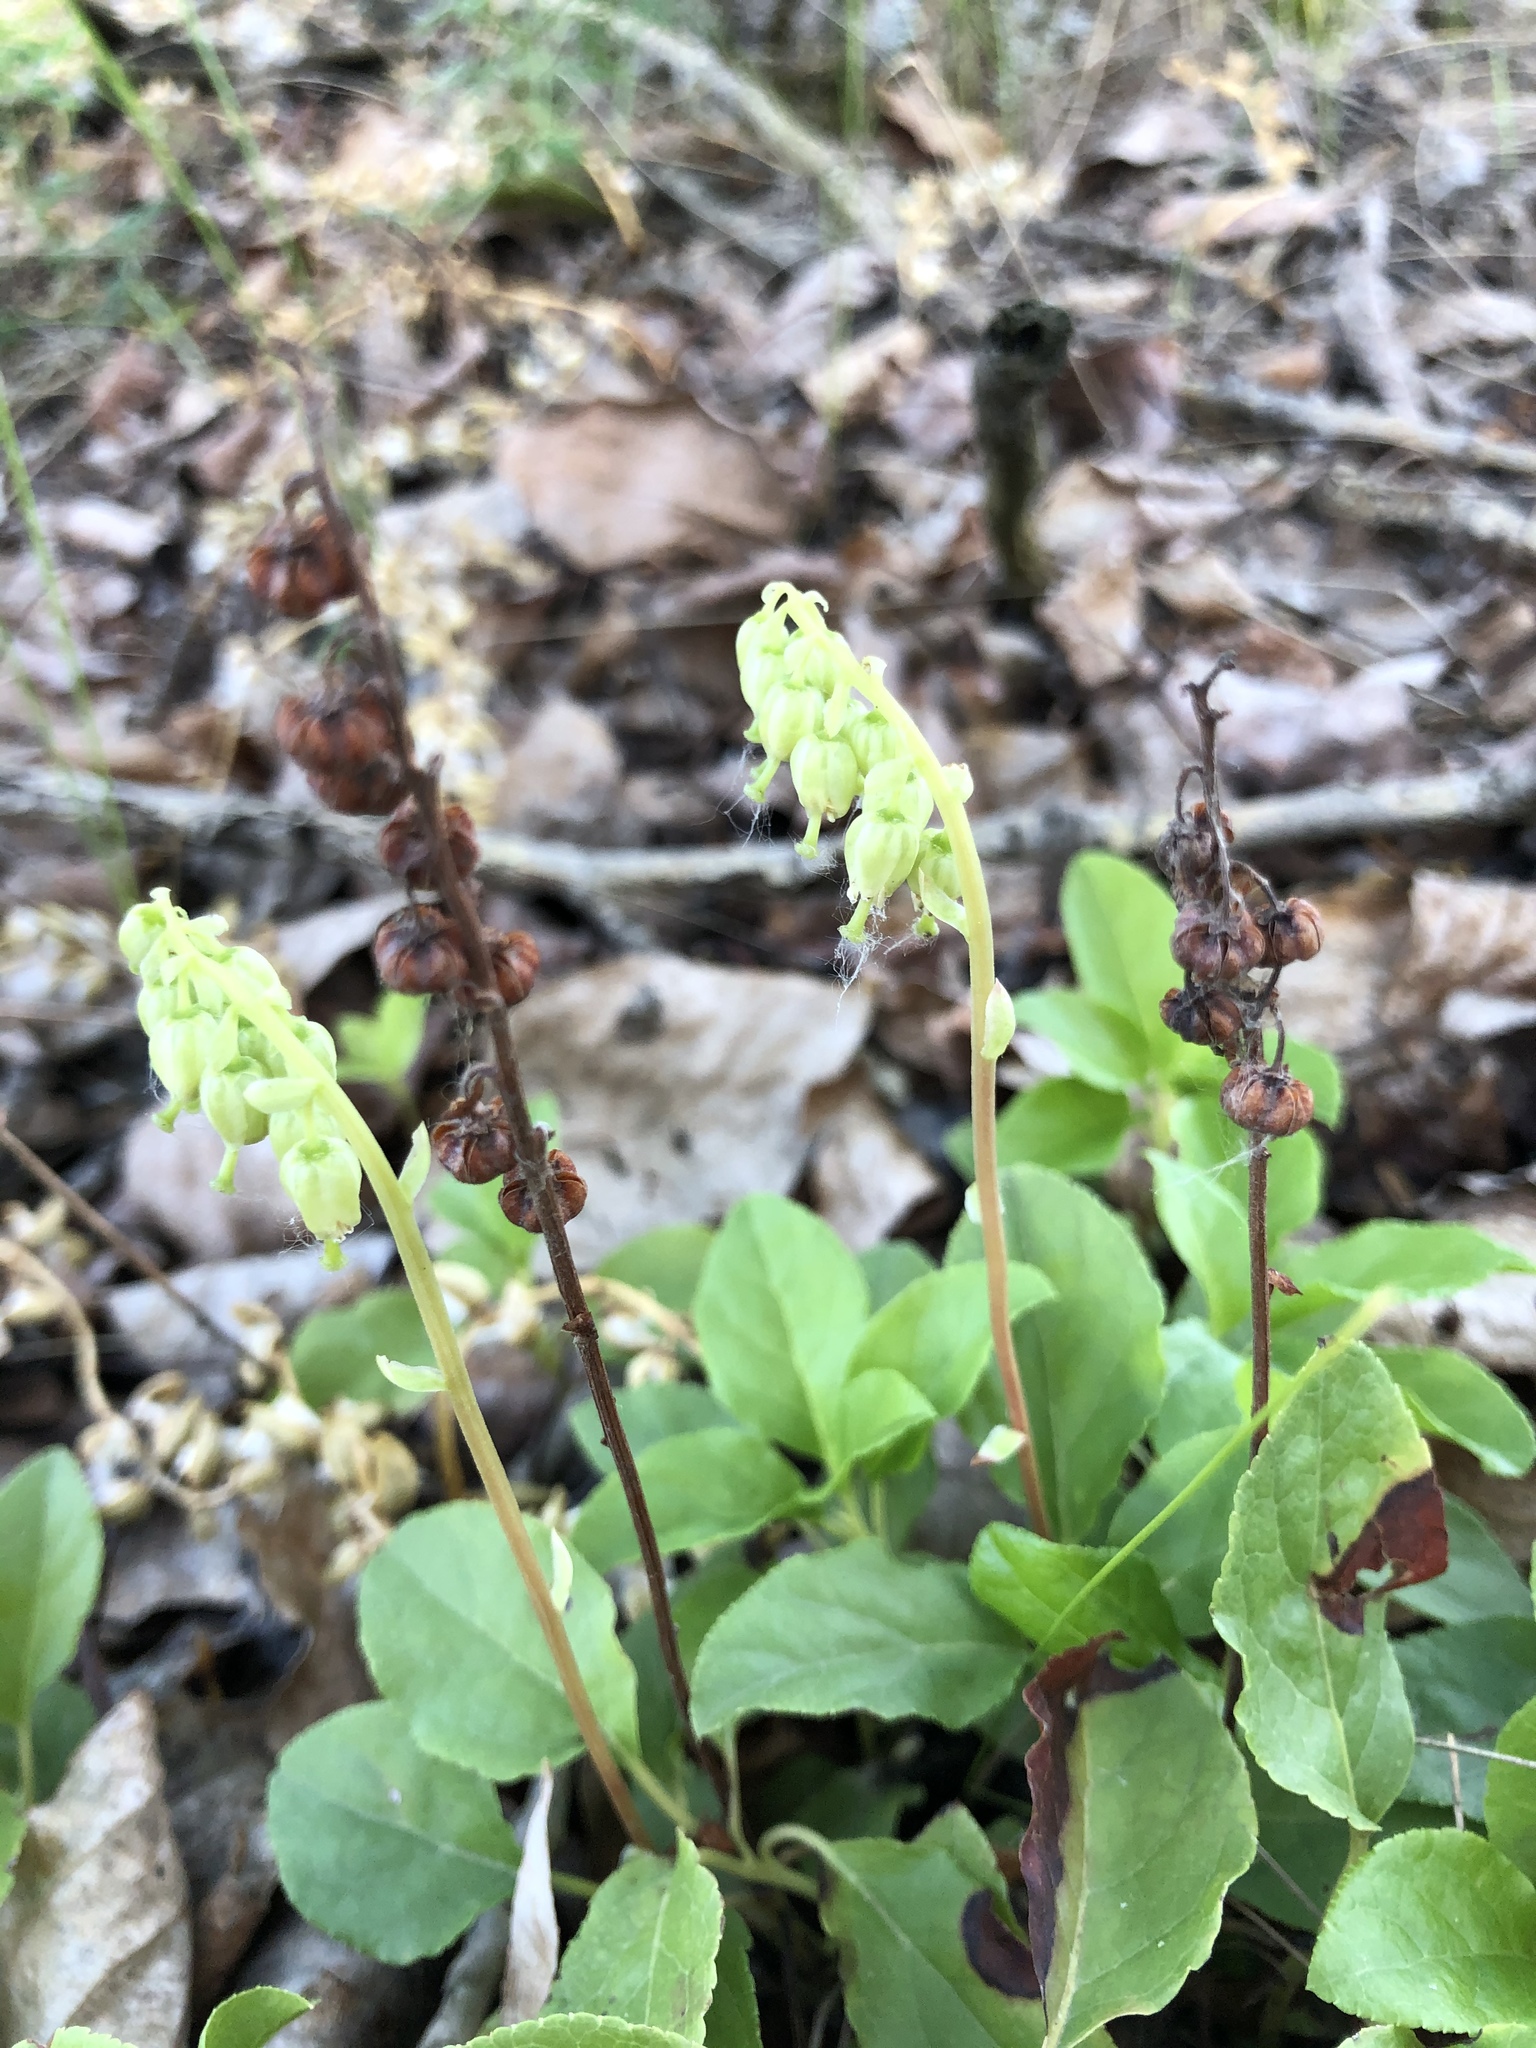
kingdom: Plantae
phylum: Tracheophyta
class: Magnoliopsida
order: Ericales
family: Ericaceae
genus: Orthilia
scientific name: Orthilia secunda
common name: One-sided orthilia
